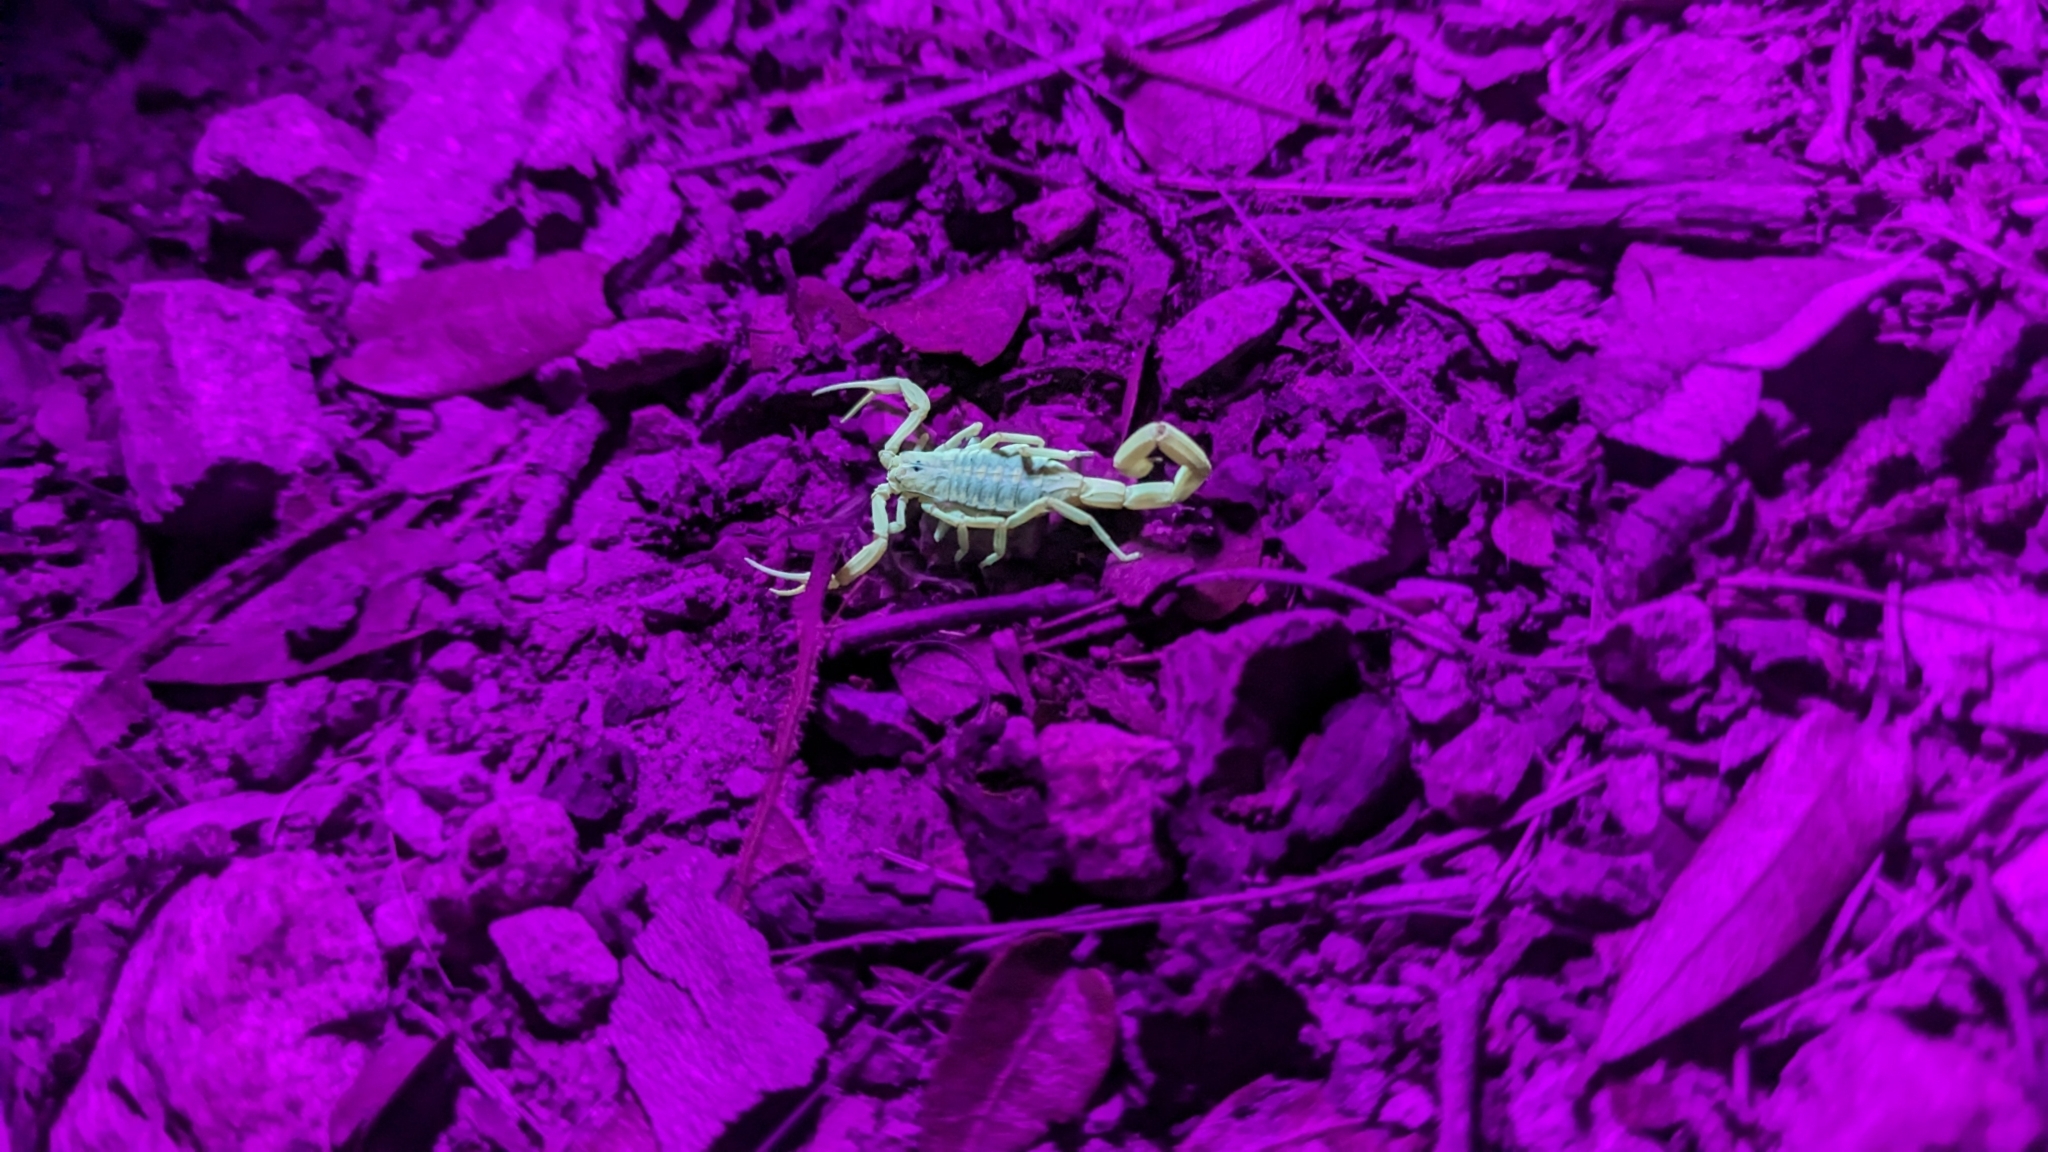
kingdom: Animalia
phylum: Arthropoda
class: Arachnida
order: Scorpiones
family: Buthidae
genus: Centruroides
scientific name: Centruroides sculpturatus
